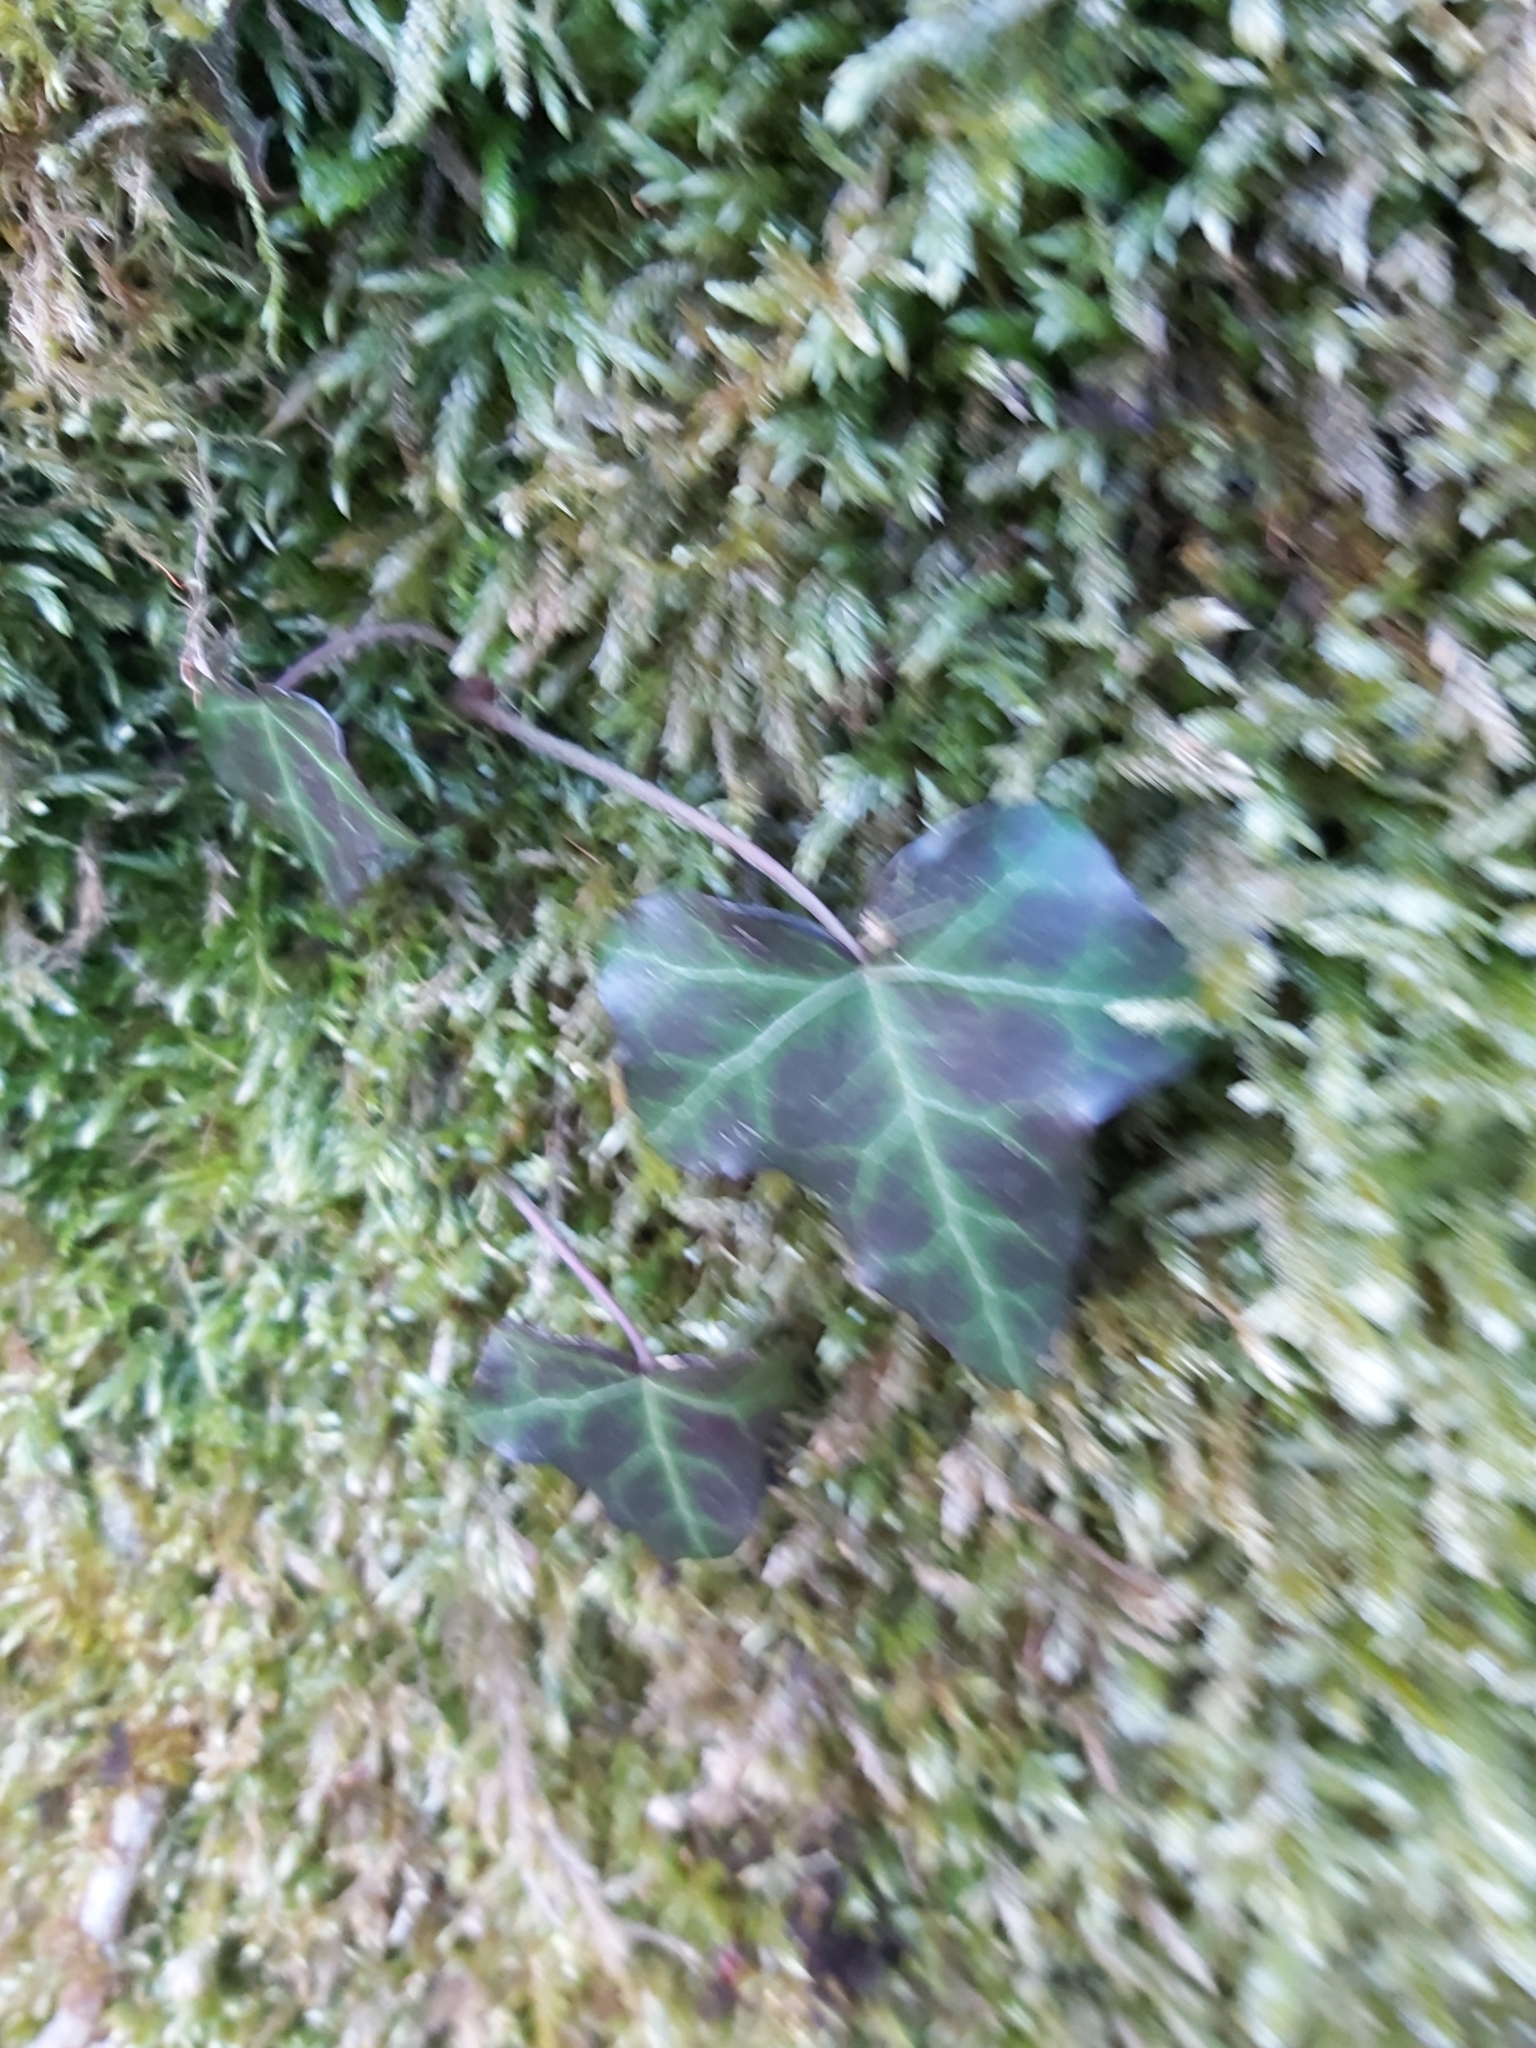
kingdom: Plantae
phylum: Tracheophyta
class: Magnoliopsida
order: Apiales
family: Araliaceae
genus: Hedera
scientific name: Hedera helix
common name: Ivy
